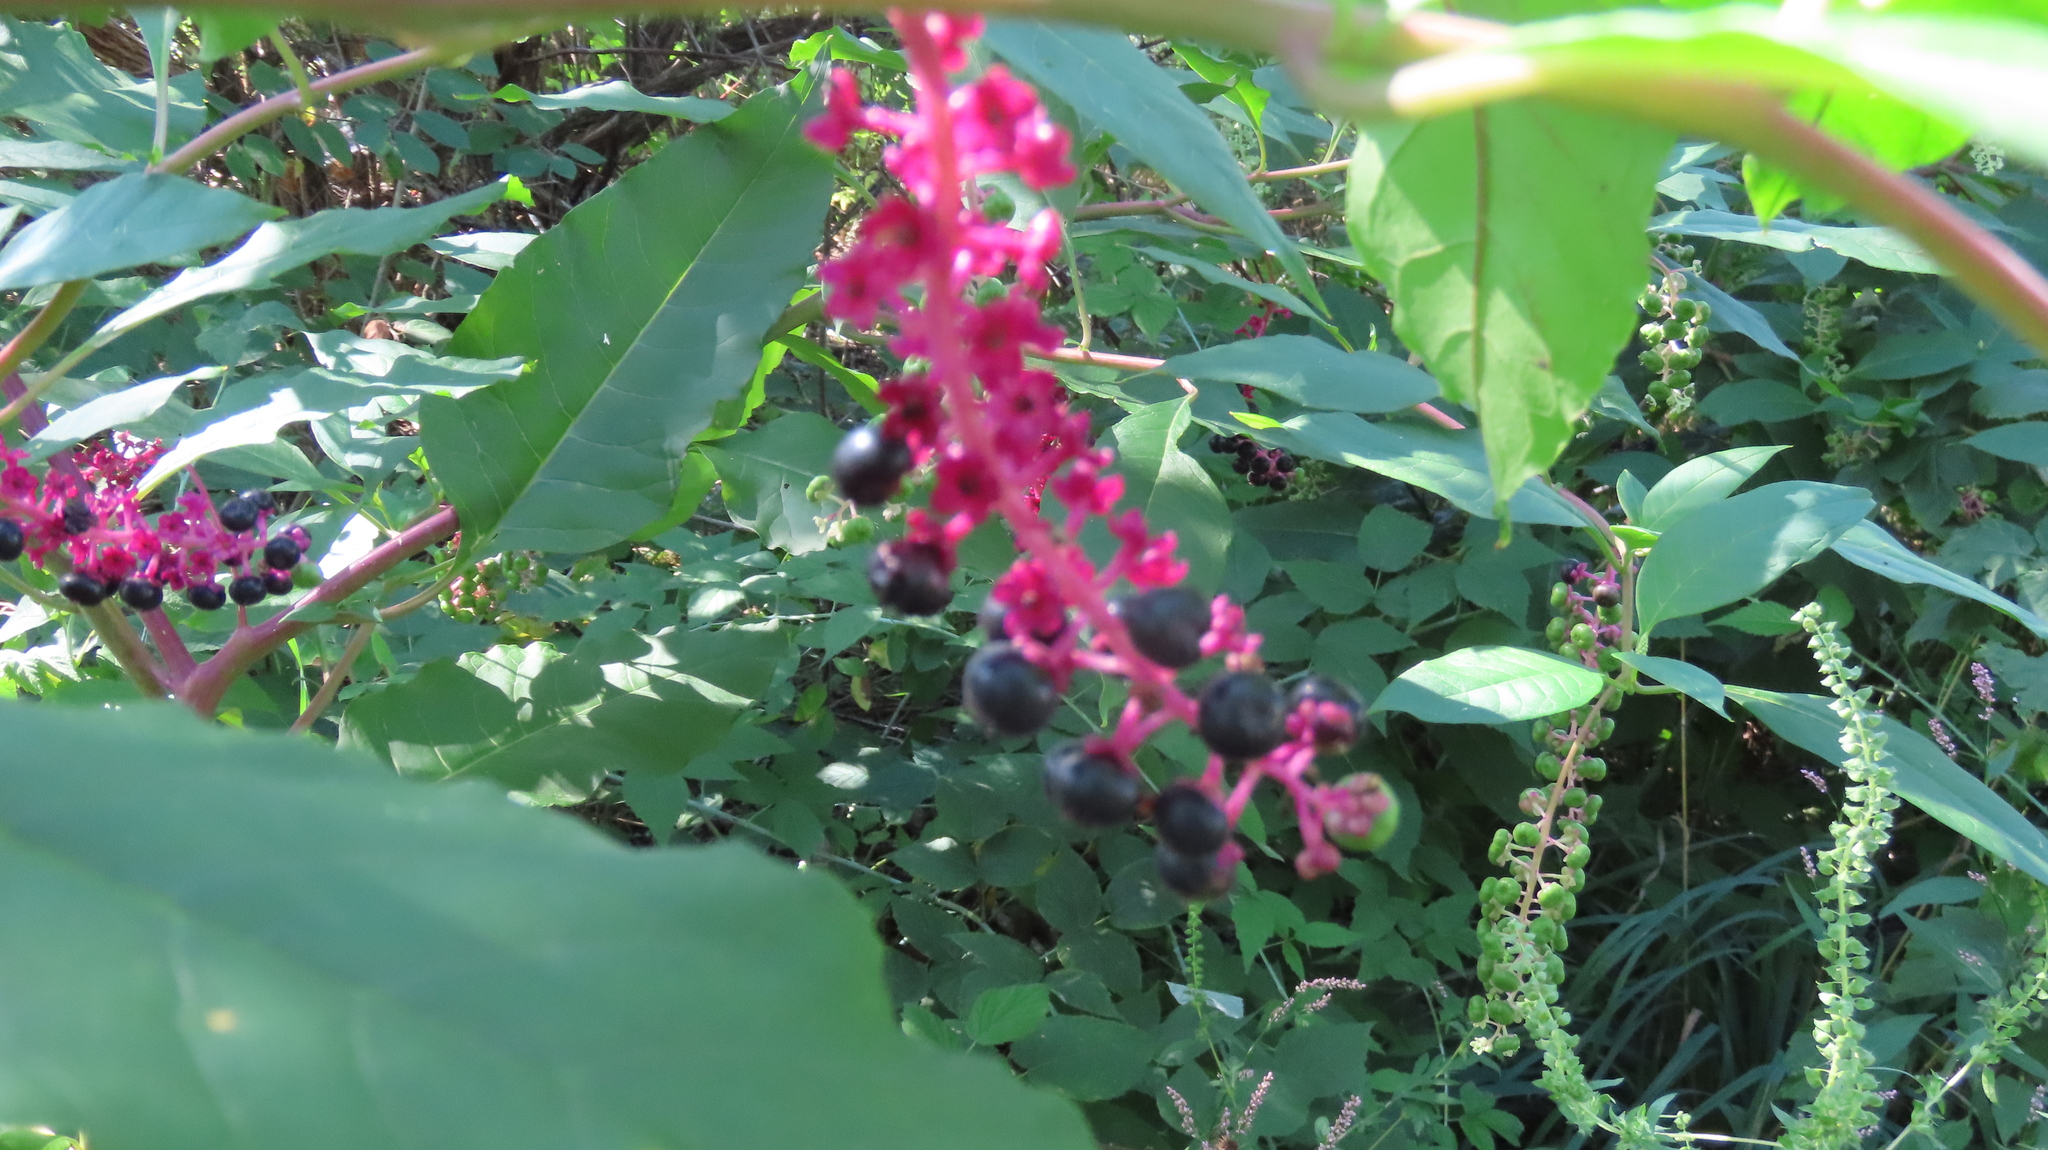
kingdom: Plantae
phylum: Tracheophyta
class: Magnoliopsida
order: Caryophyllales
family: Phytolaccaceae
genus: Phytolacca
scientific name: Phytolacca americana
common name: American pokeweed
